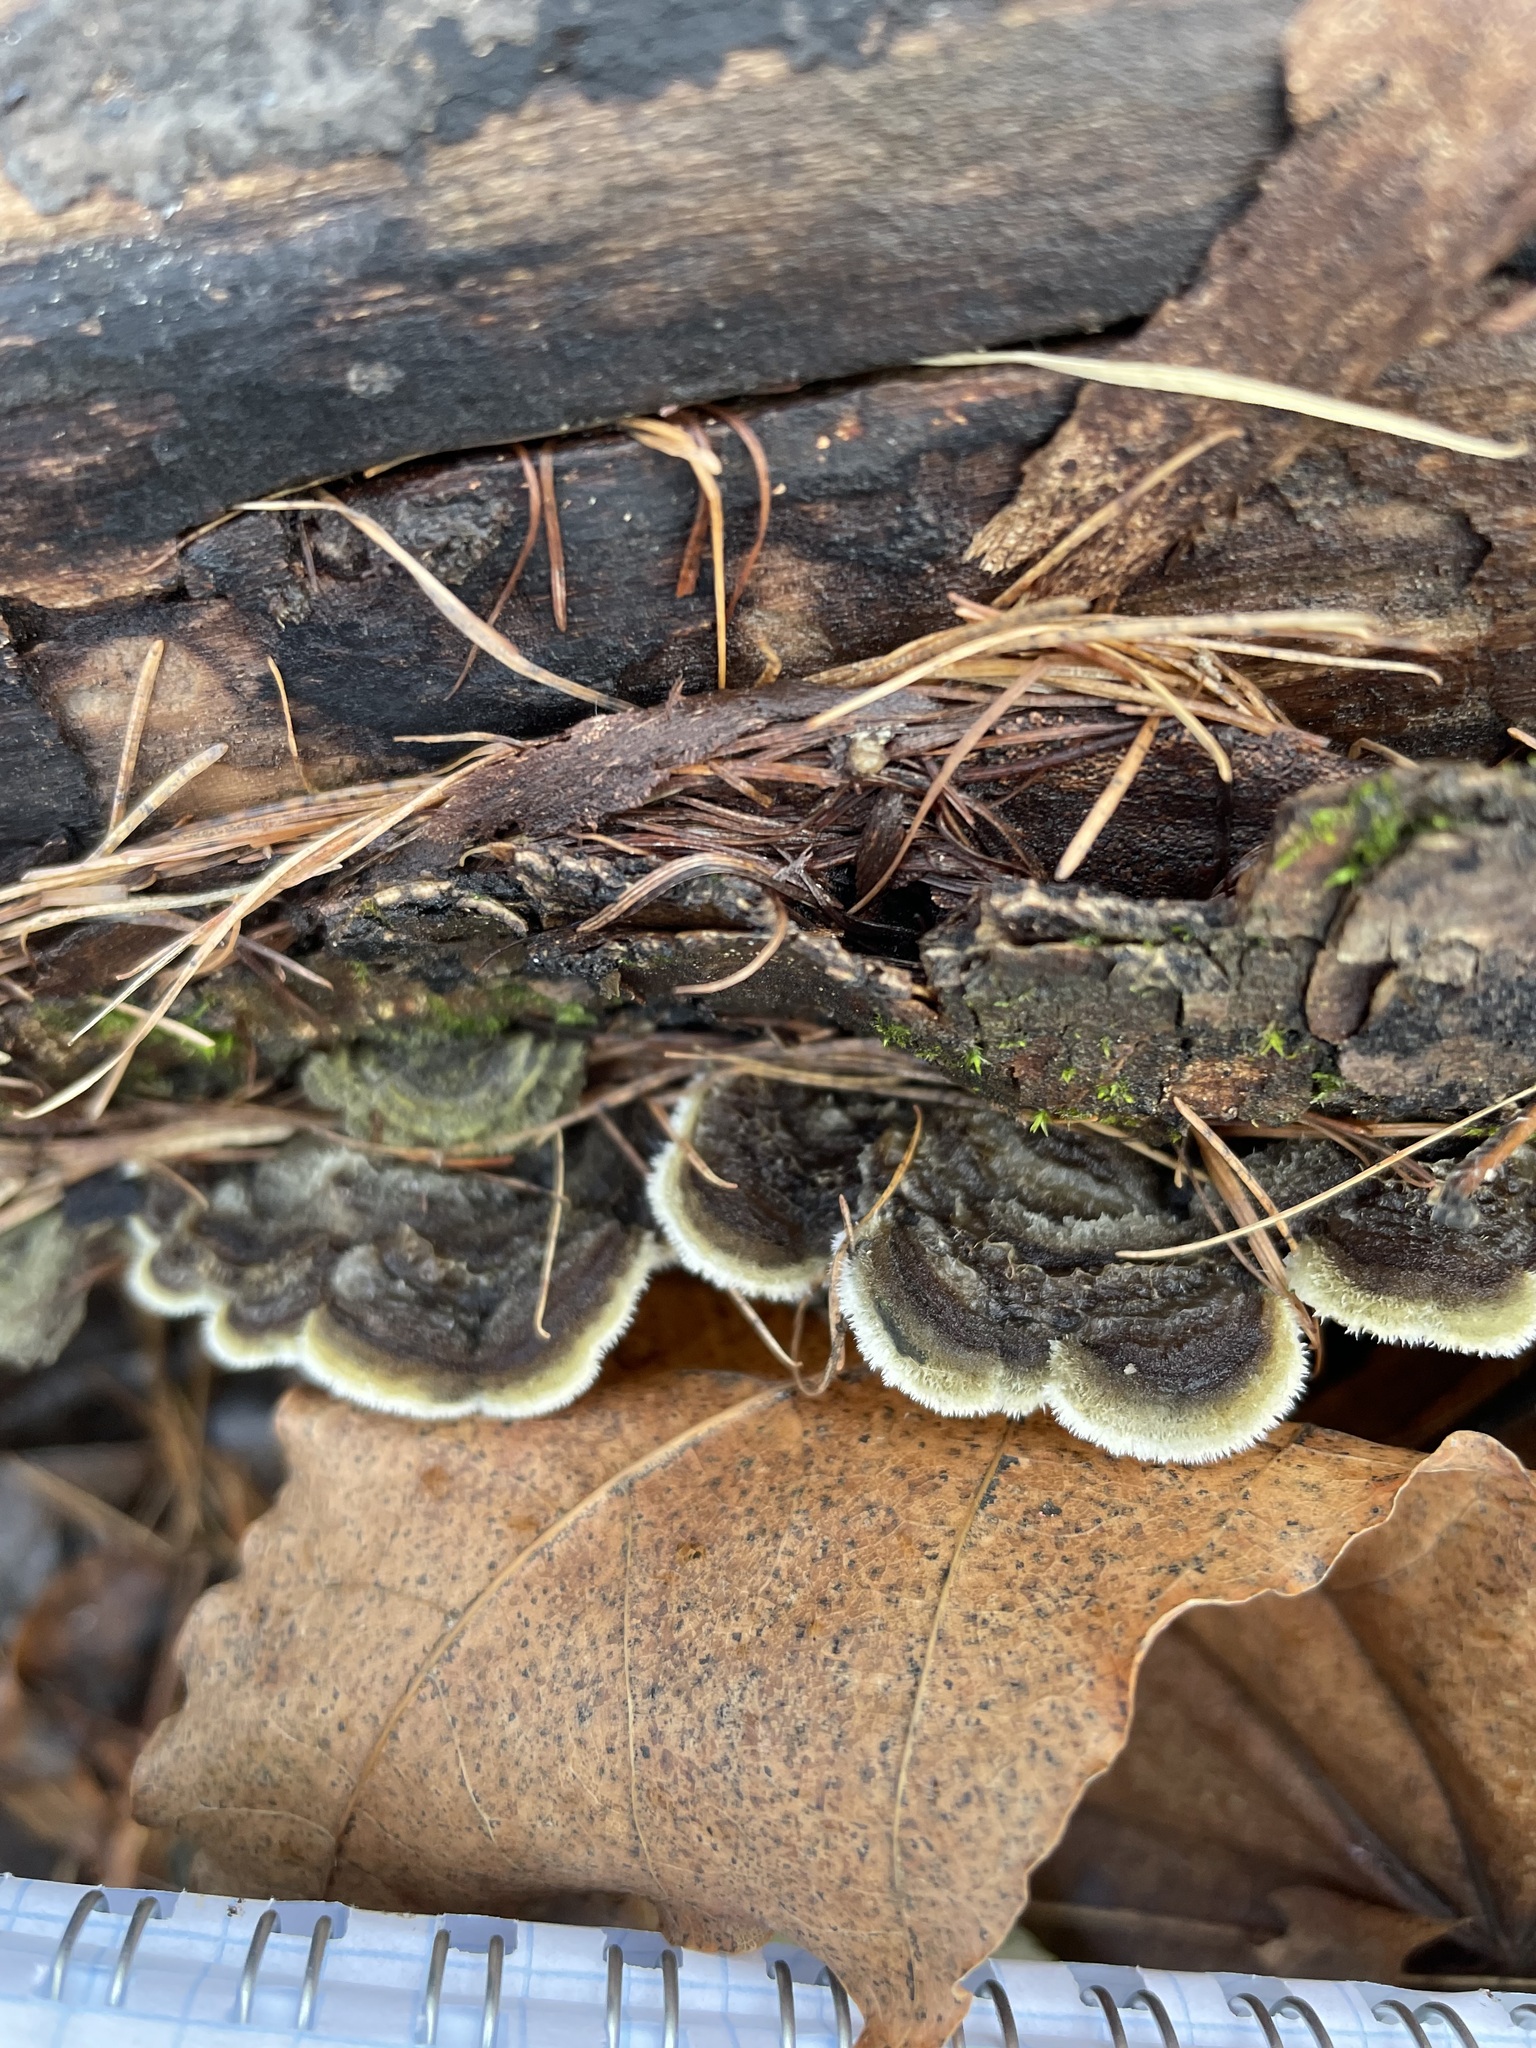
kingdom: Fungi
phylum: Basidiomycota
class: Agaricomycetes
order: Polyporales
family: Polyporaceae
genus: Trametes
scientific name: Trametes versicolor
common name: Turkeytail
